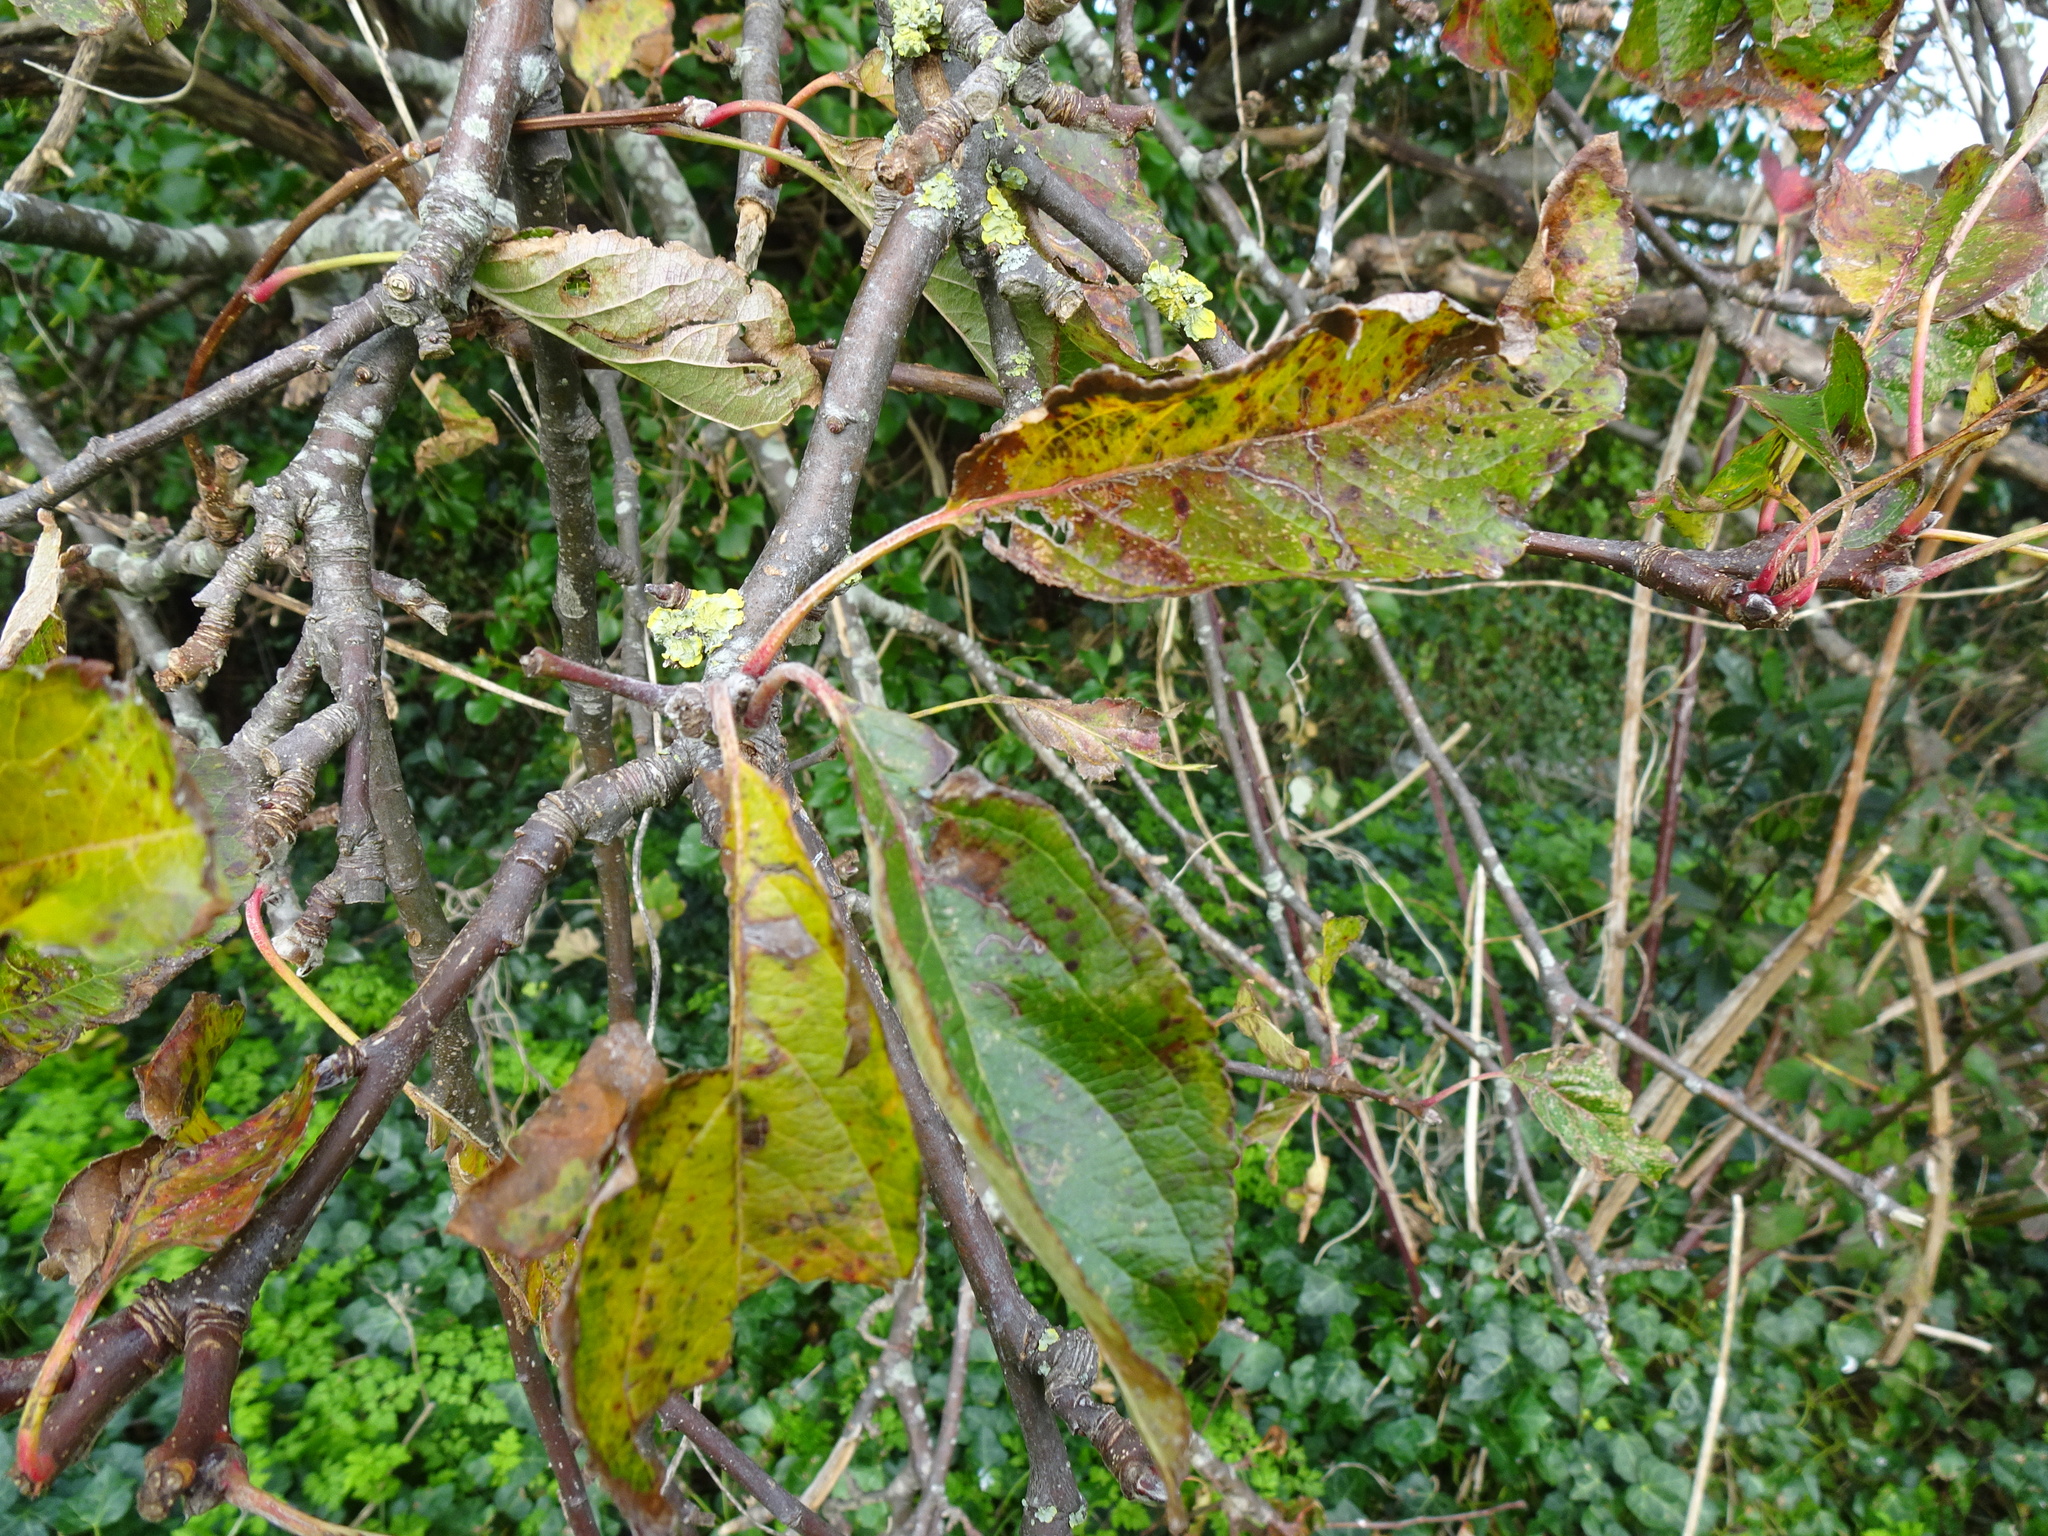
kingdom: Plantae
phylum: Tracheophyta
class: Magnoliopsida
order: Rosales
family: Rosaceae
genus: Malus
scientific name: Malus domestica
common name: Apple
